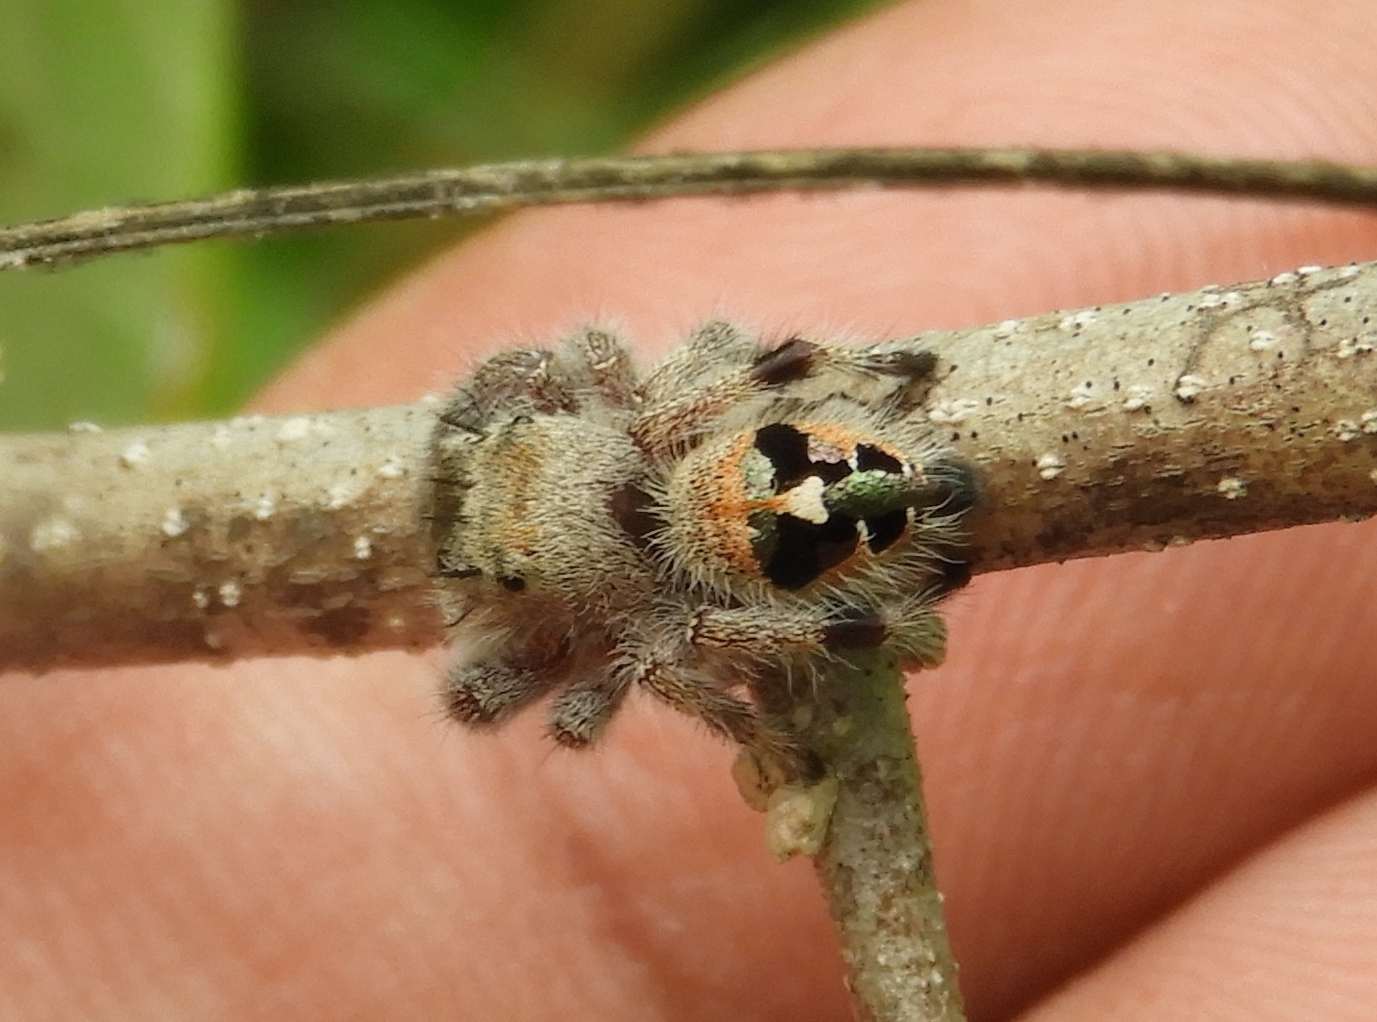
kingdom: Animalia
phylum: Arthropoda
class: Arachnida
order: Araneae
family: Salticidae
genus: Phidippus
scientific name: Phidippus maddisoni
